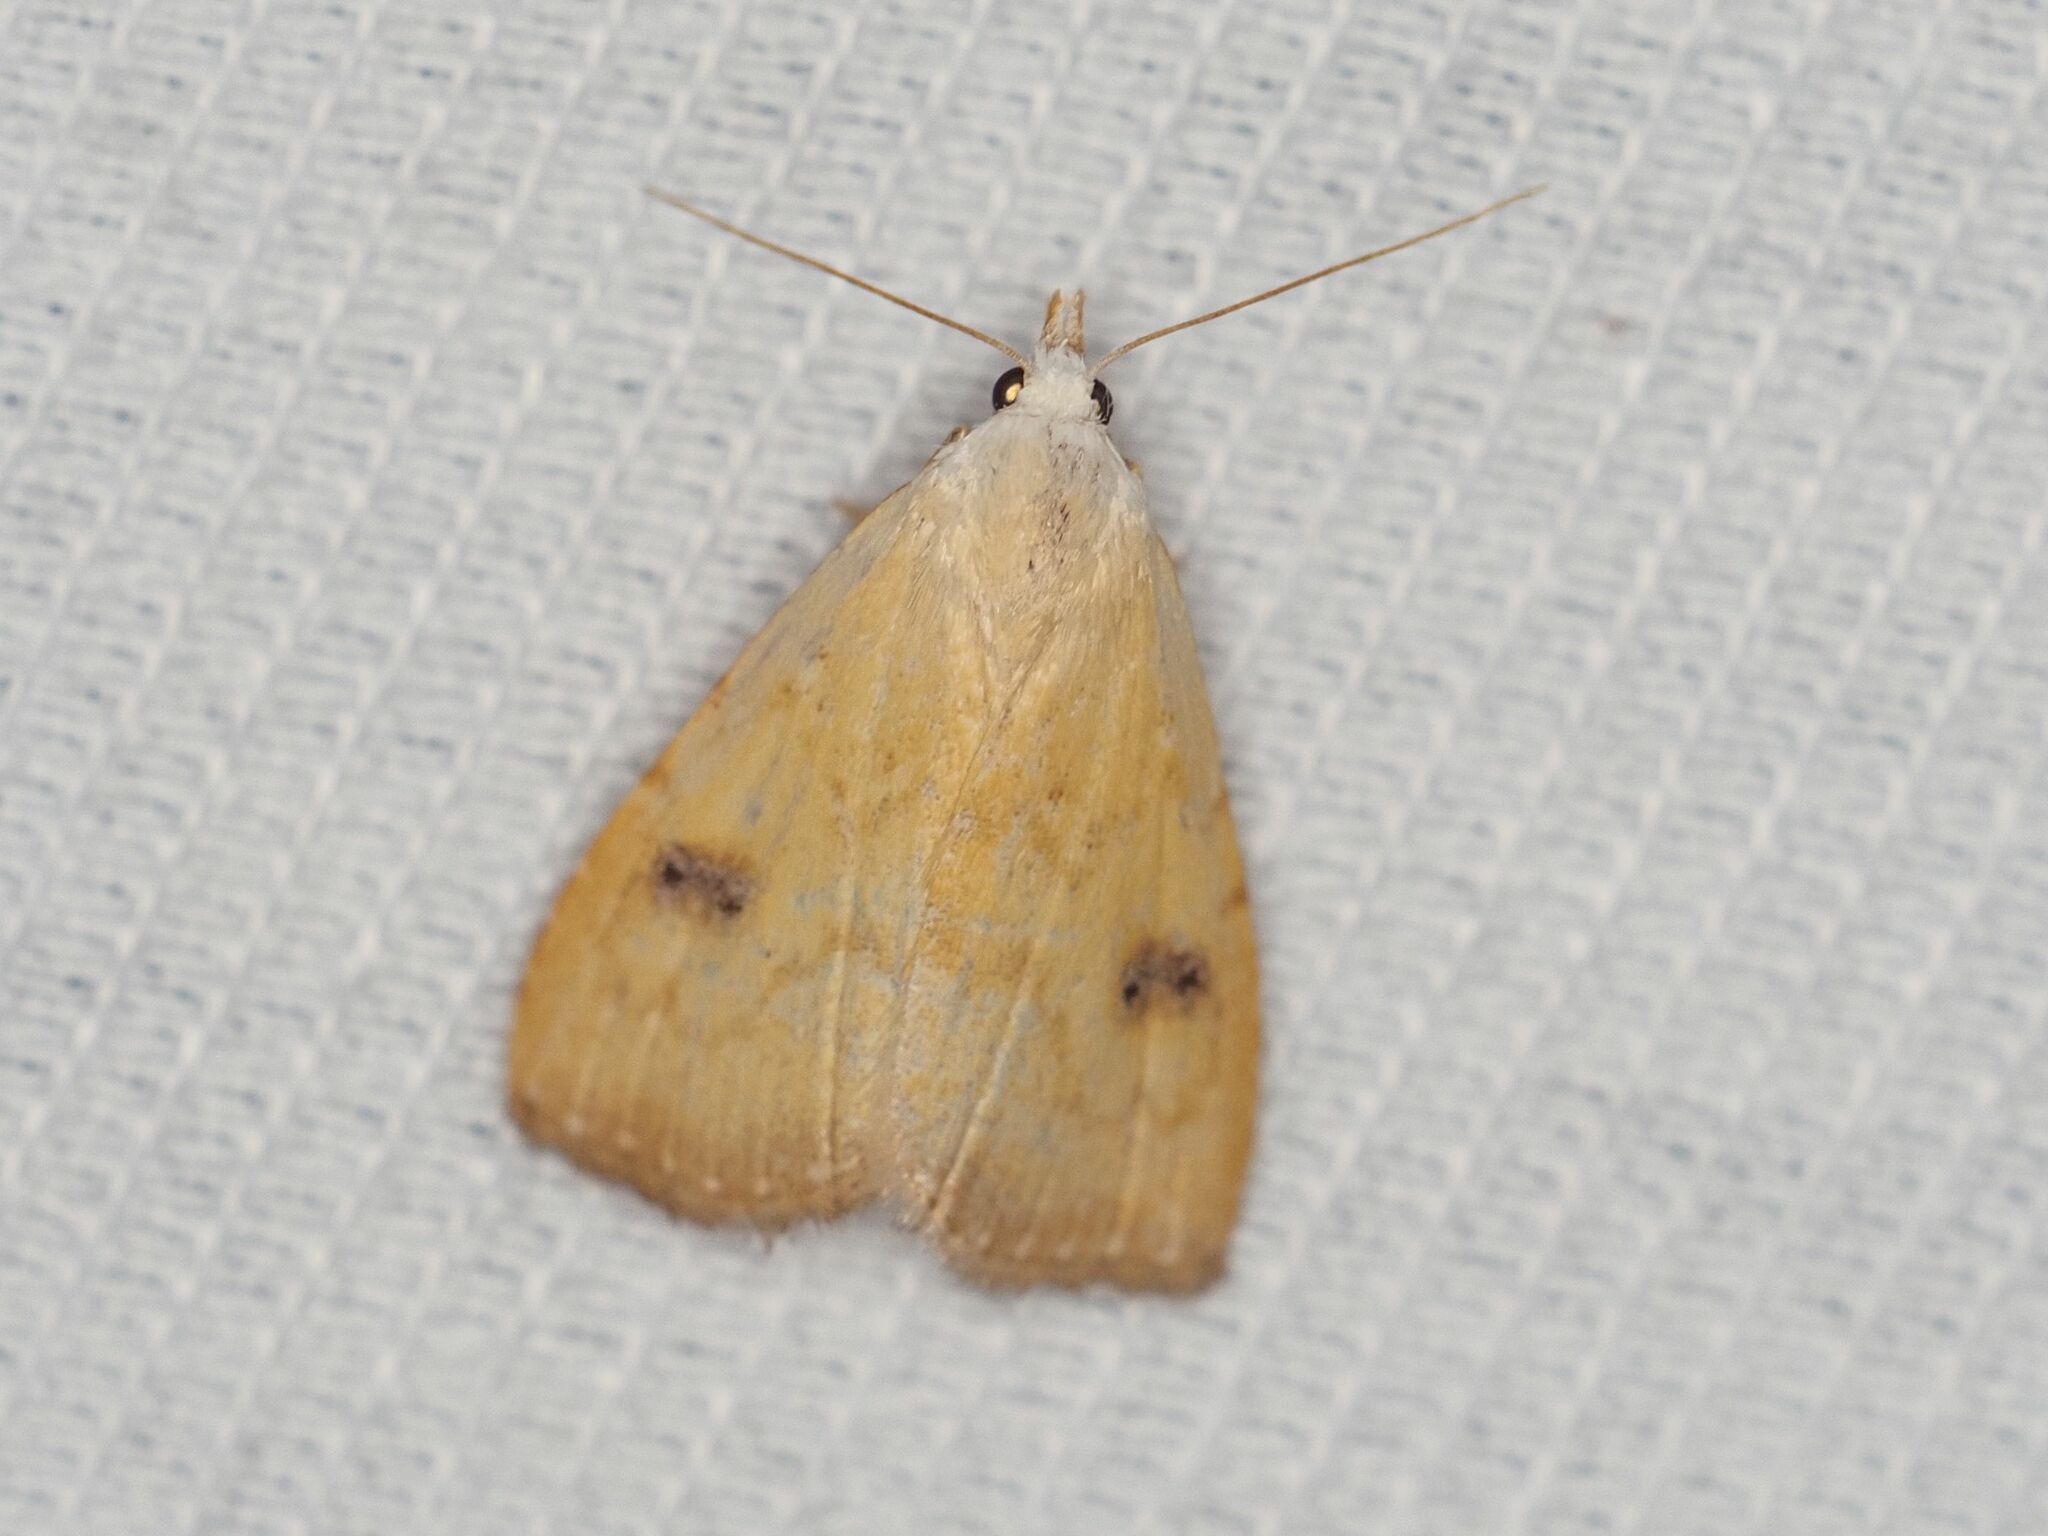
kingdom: Animalia
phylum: Arthropoda
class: Insecta
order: Lepidoptera
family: Erebidae
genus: Rivula
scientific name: Rivula sericealis
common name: Straw dot
